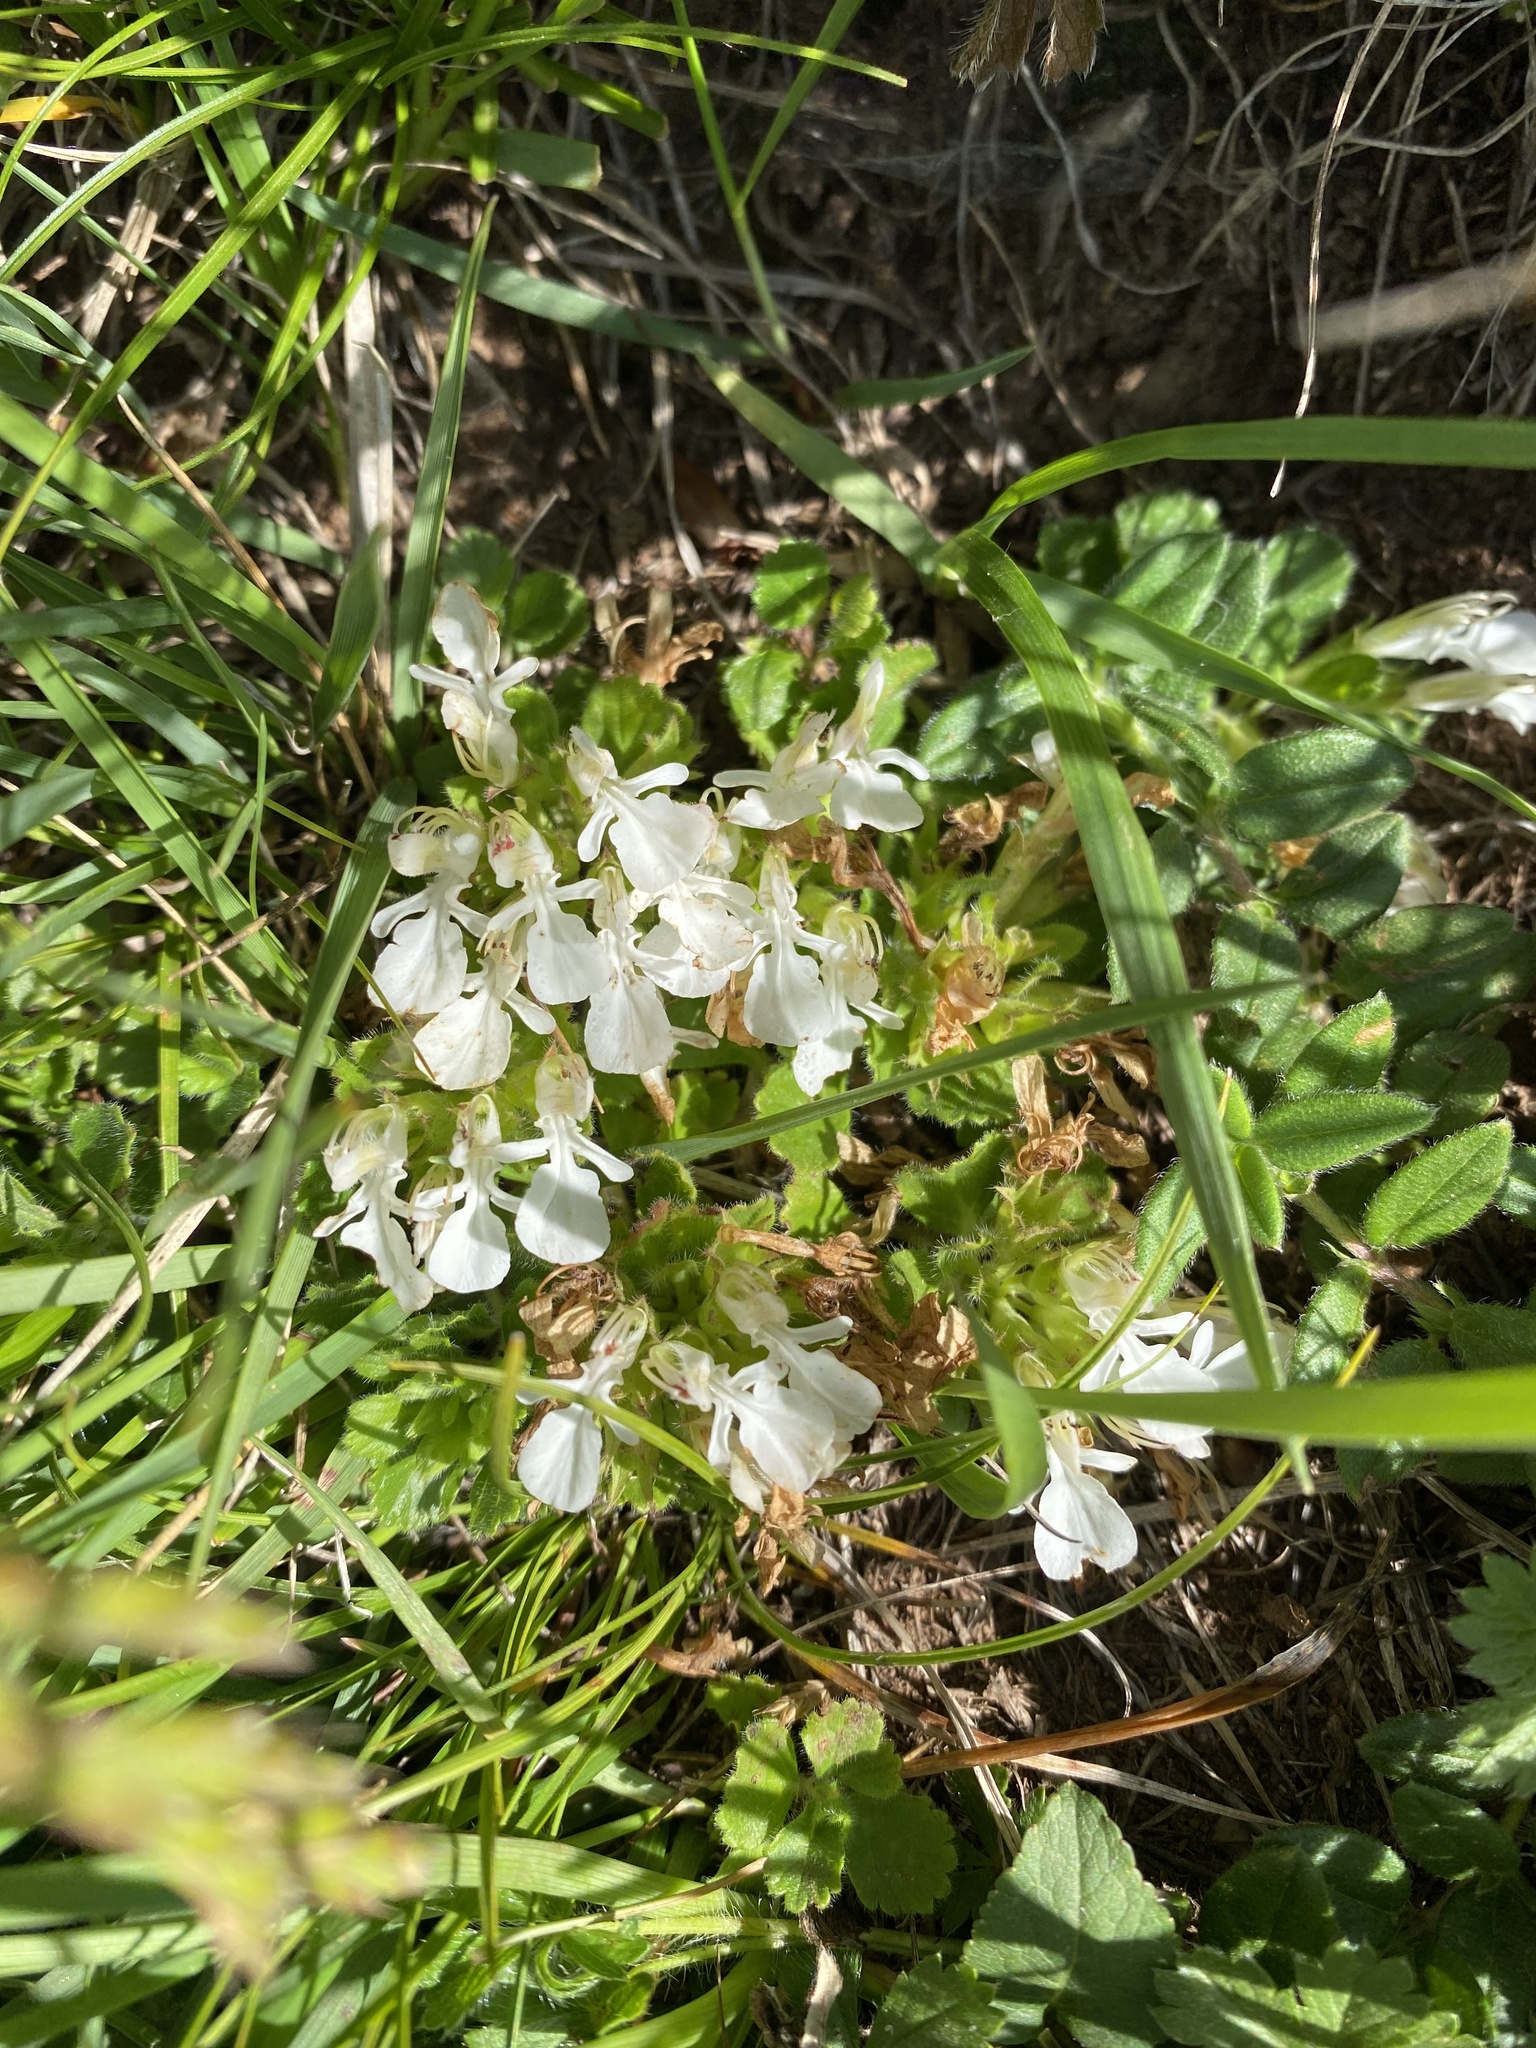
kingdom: Plantae
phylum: Tracheophyta
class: Magnoliopsida
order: Lamiales
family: Lamiaceae
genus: Teucrium
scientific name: Teucrium pyrenaicum
